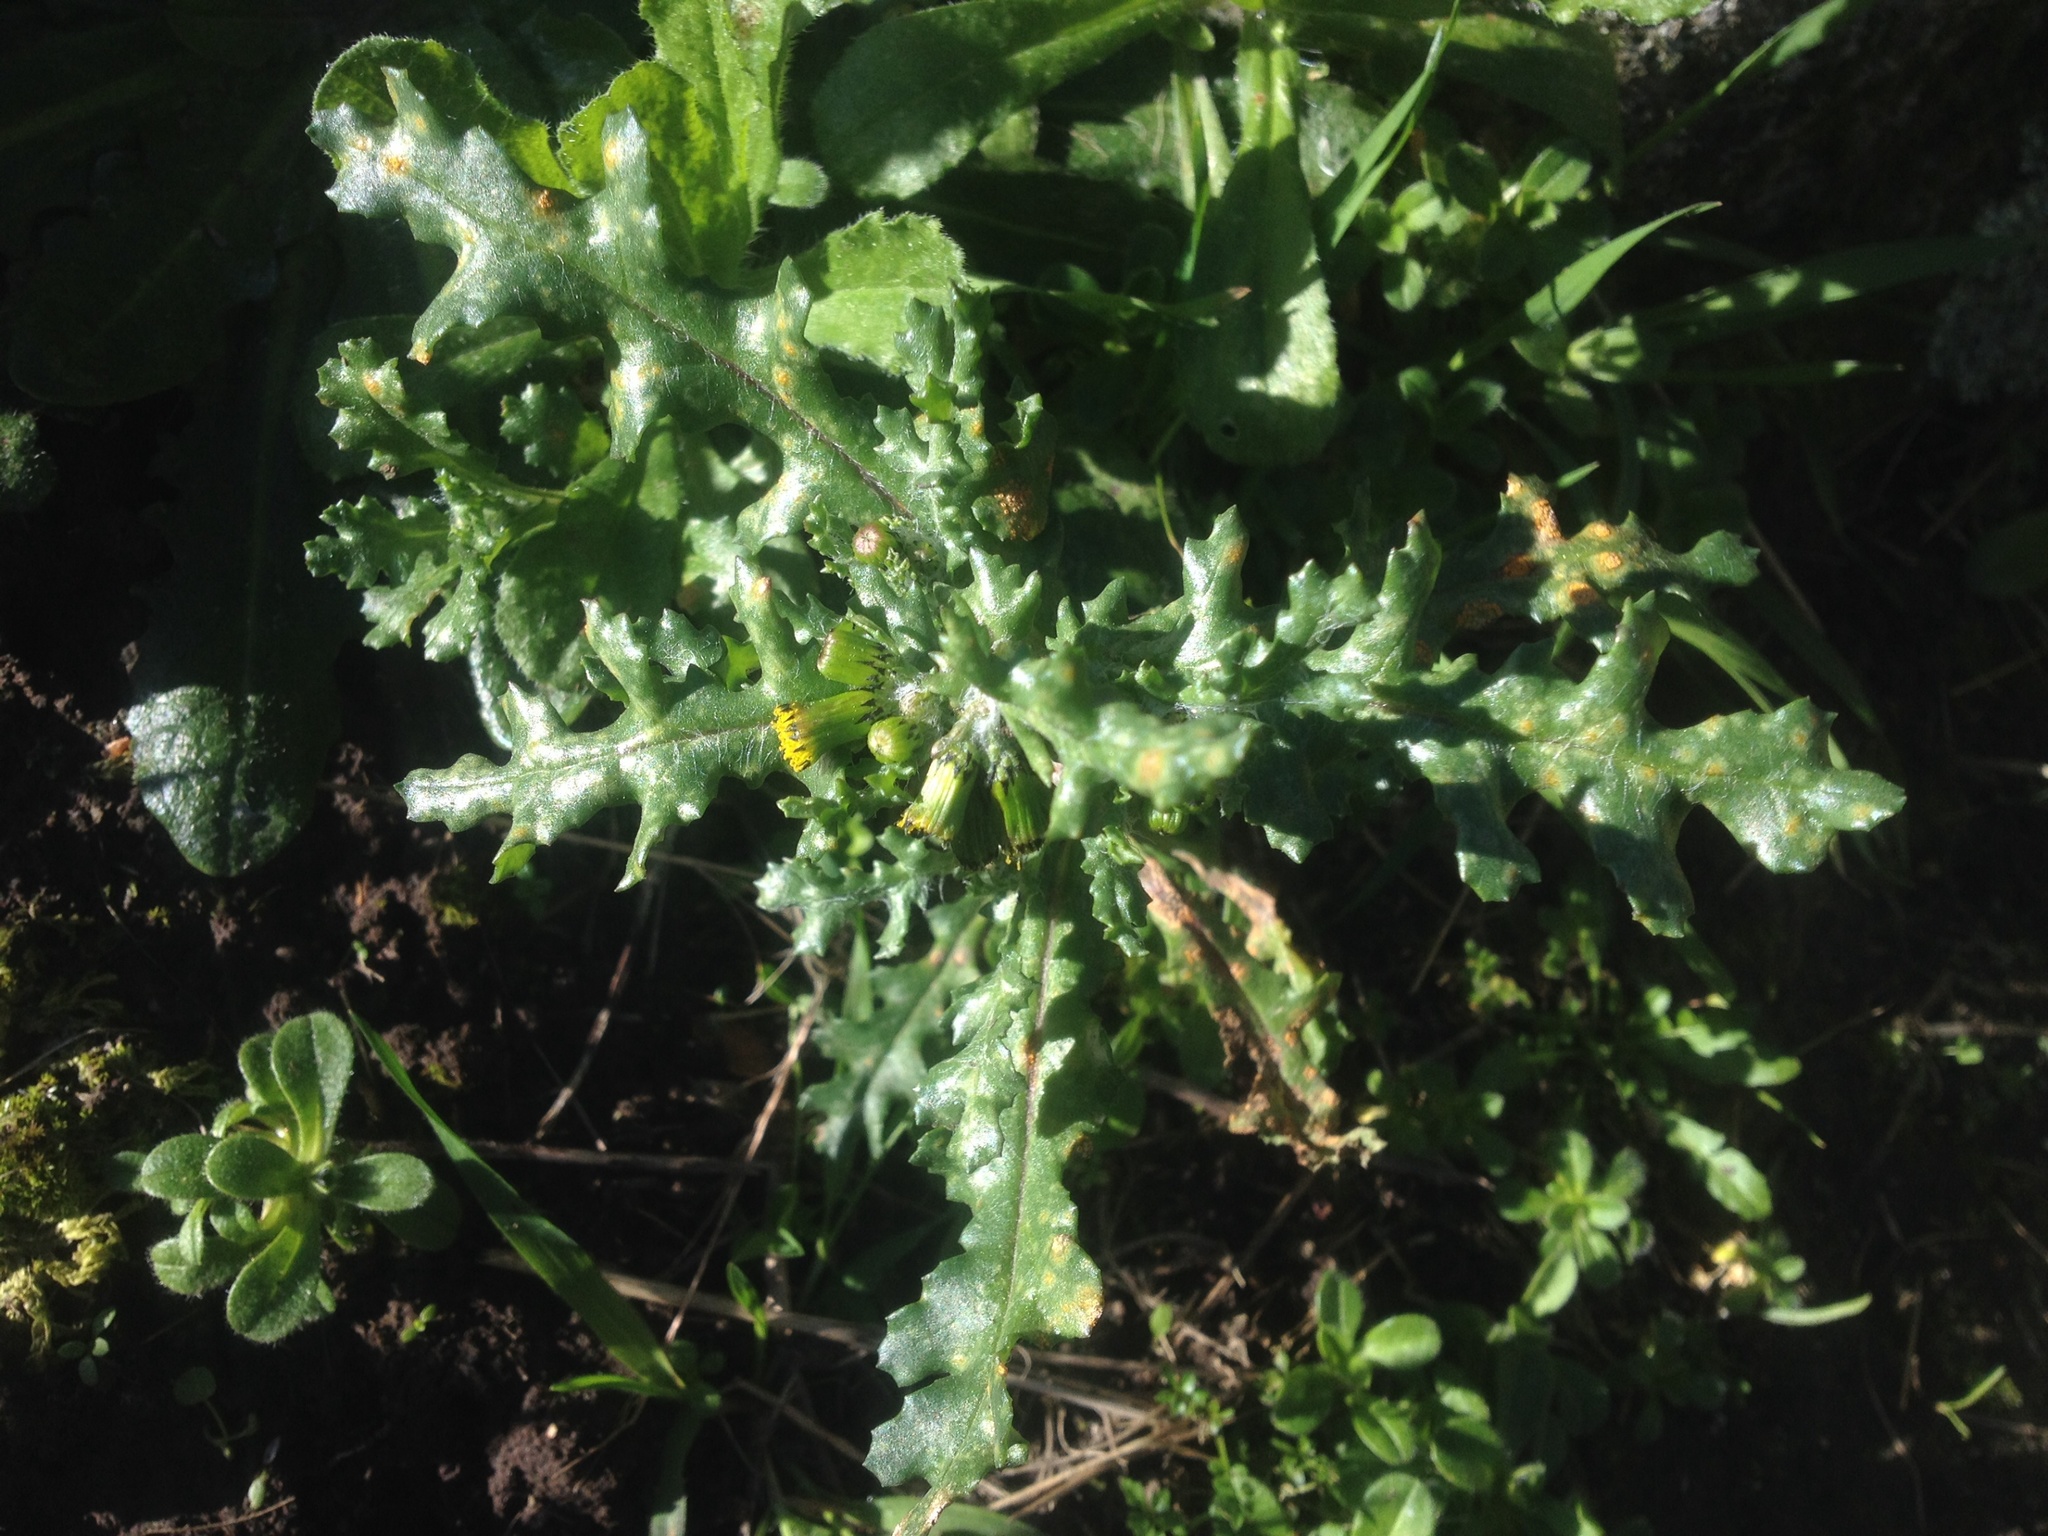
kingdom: Plantae
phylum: Tracheophyta
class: Magnoliopsida
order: Asterales
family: Asteraceae
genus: Senecio
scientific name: Senecio vulgaris
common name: Old-man-in-the-spring
